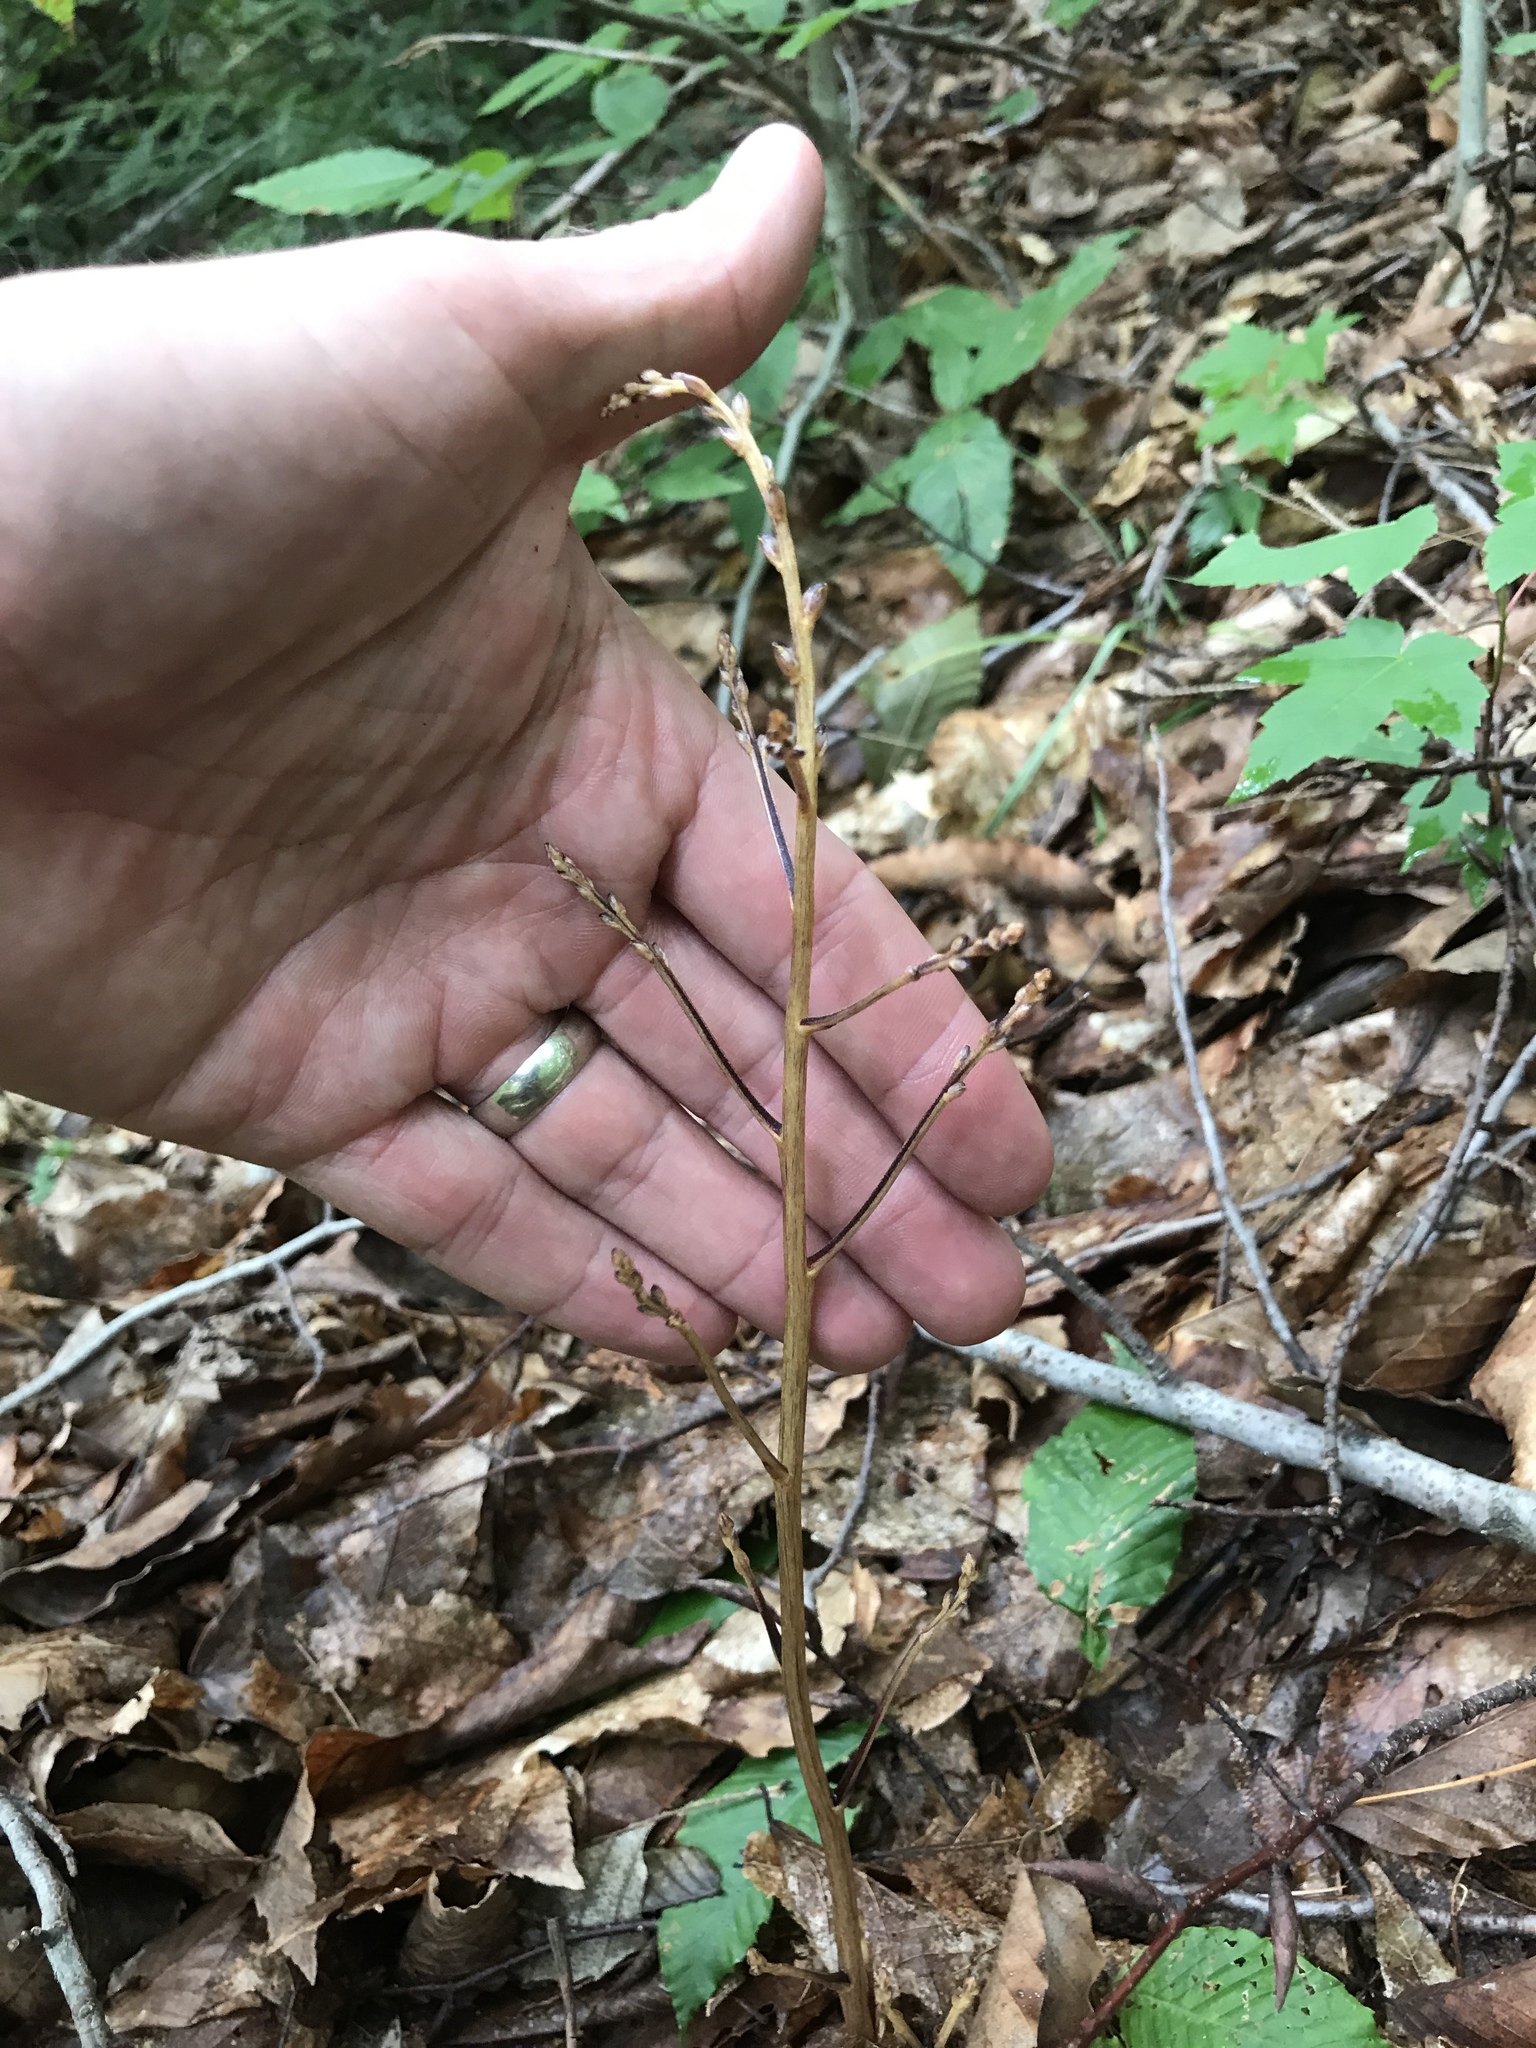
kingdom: Plantae
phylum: Tracheophyta
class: Magnoliopsida
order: Lamiales
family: Orobanchaceae
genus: Epifagus
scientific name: Epifagus virginiana
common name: Beechdrops
